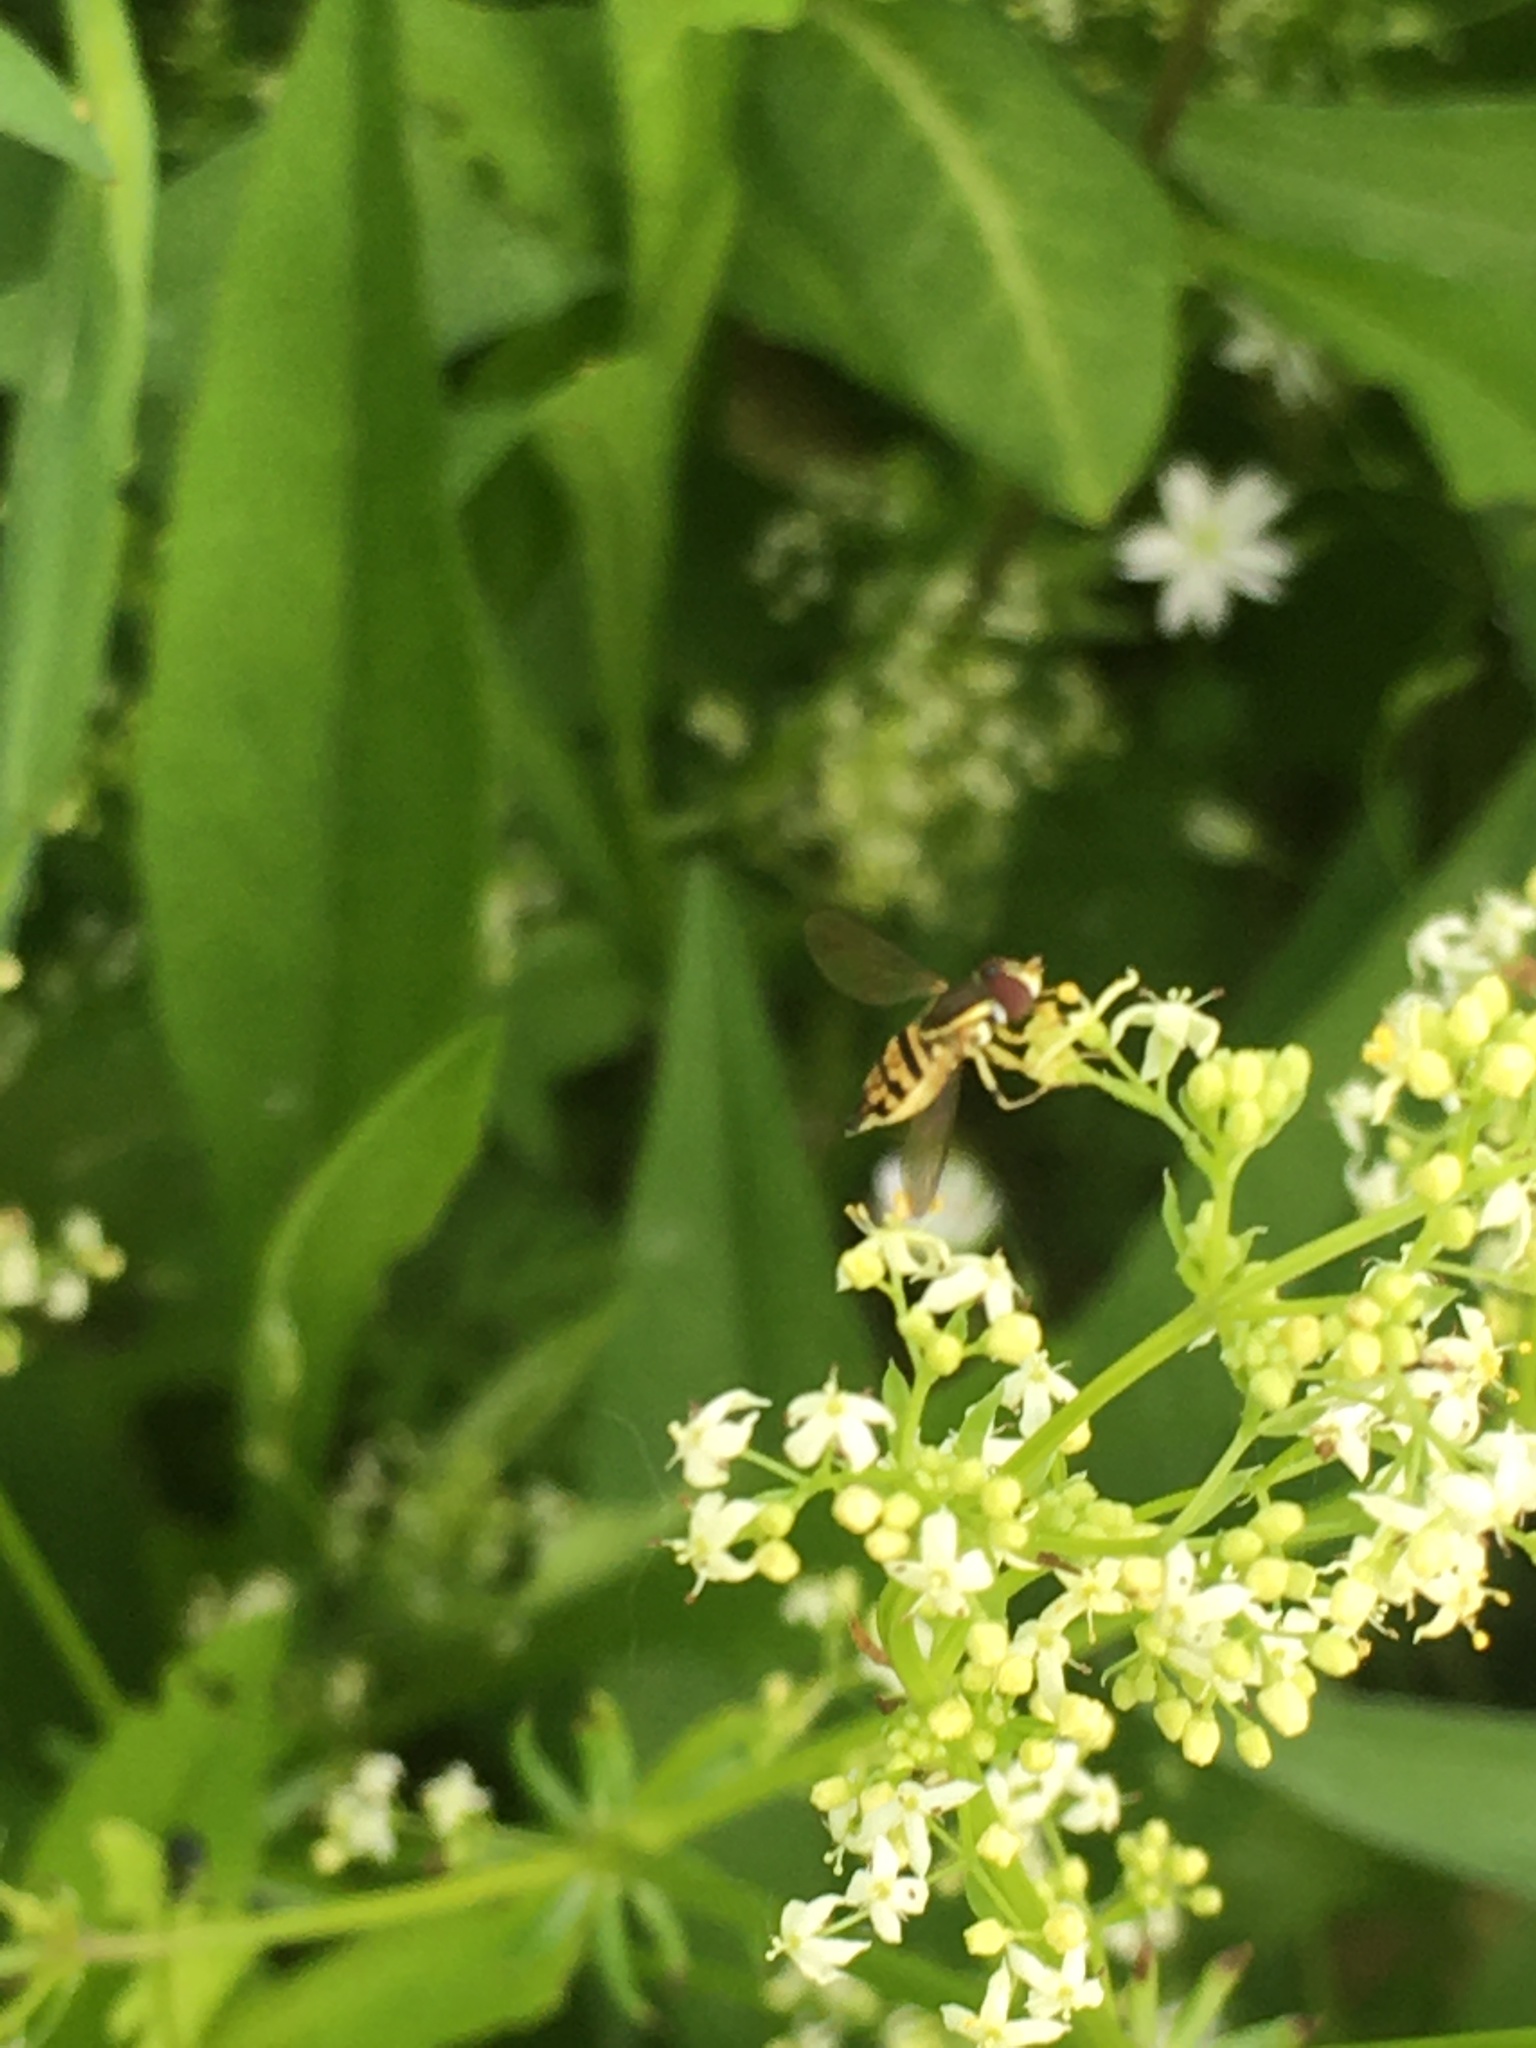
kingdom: Animalia
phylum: Arthropoda
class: Insecta
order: Diptera
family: Syrphidae
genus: Toxomerus
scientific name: Toxomerus geminatus
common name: Eastern calligrapher
